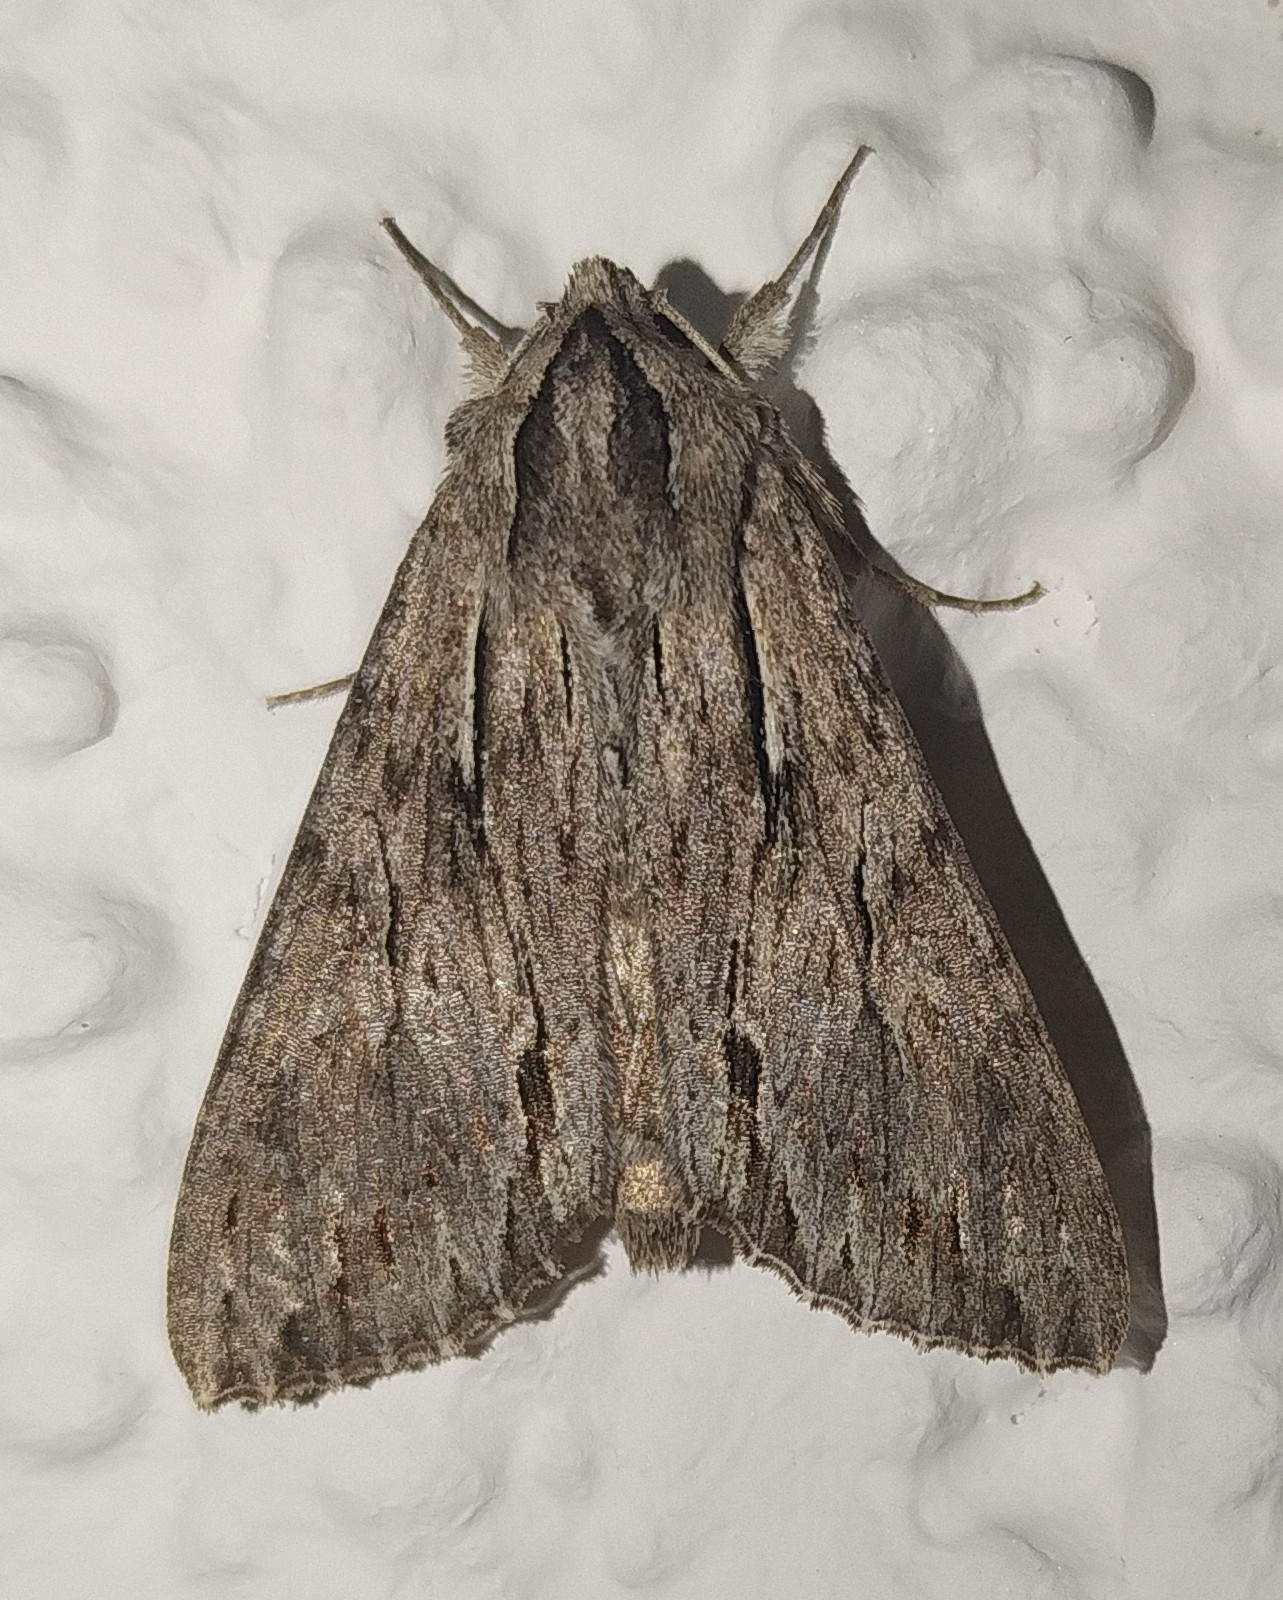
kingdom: Animalia
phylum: Arthropoda
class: Insecta
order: Lepidoptera
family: Noctuidae
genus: Auchmis
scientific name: Auchmis detersa
